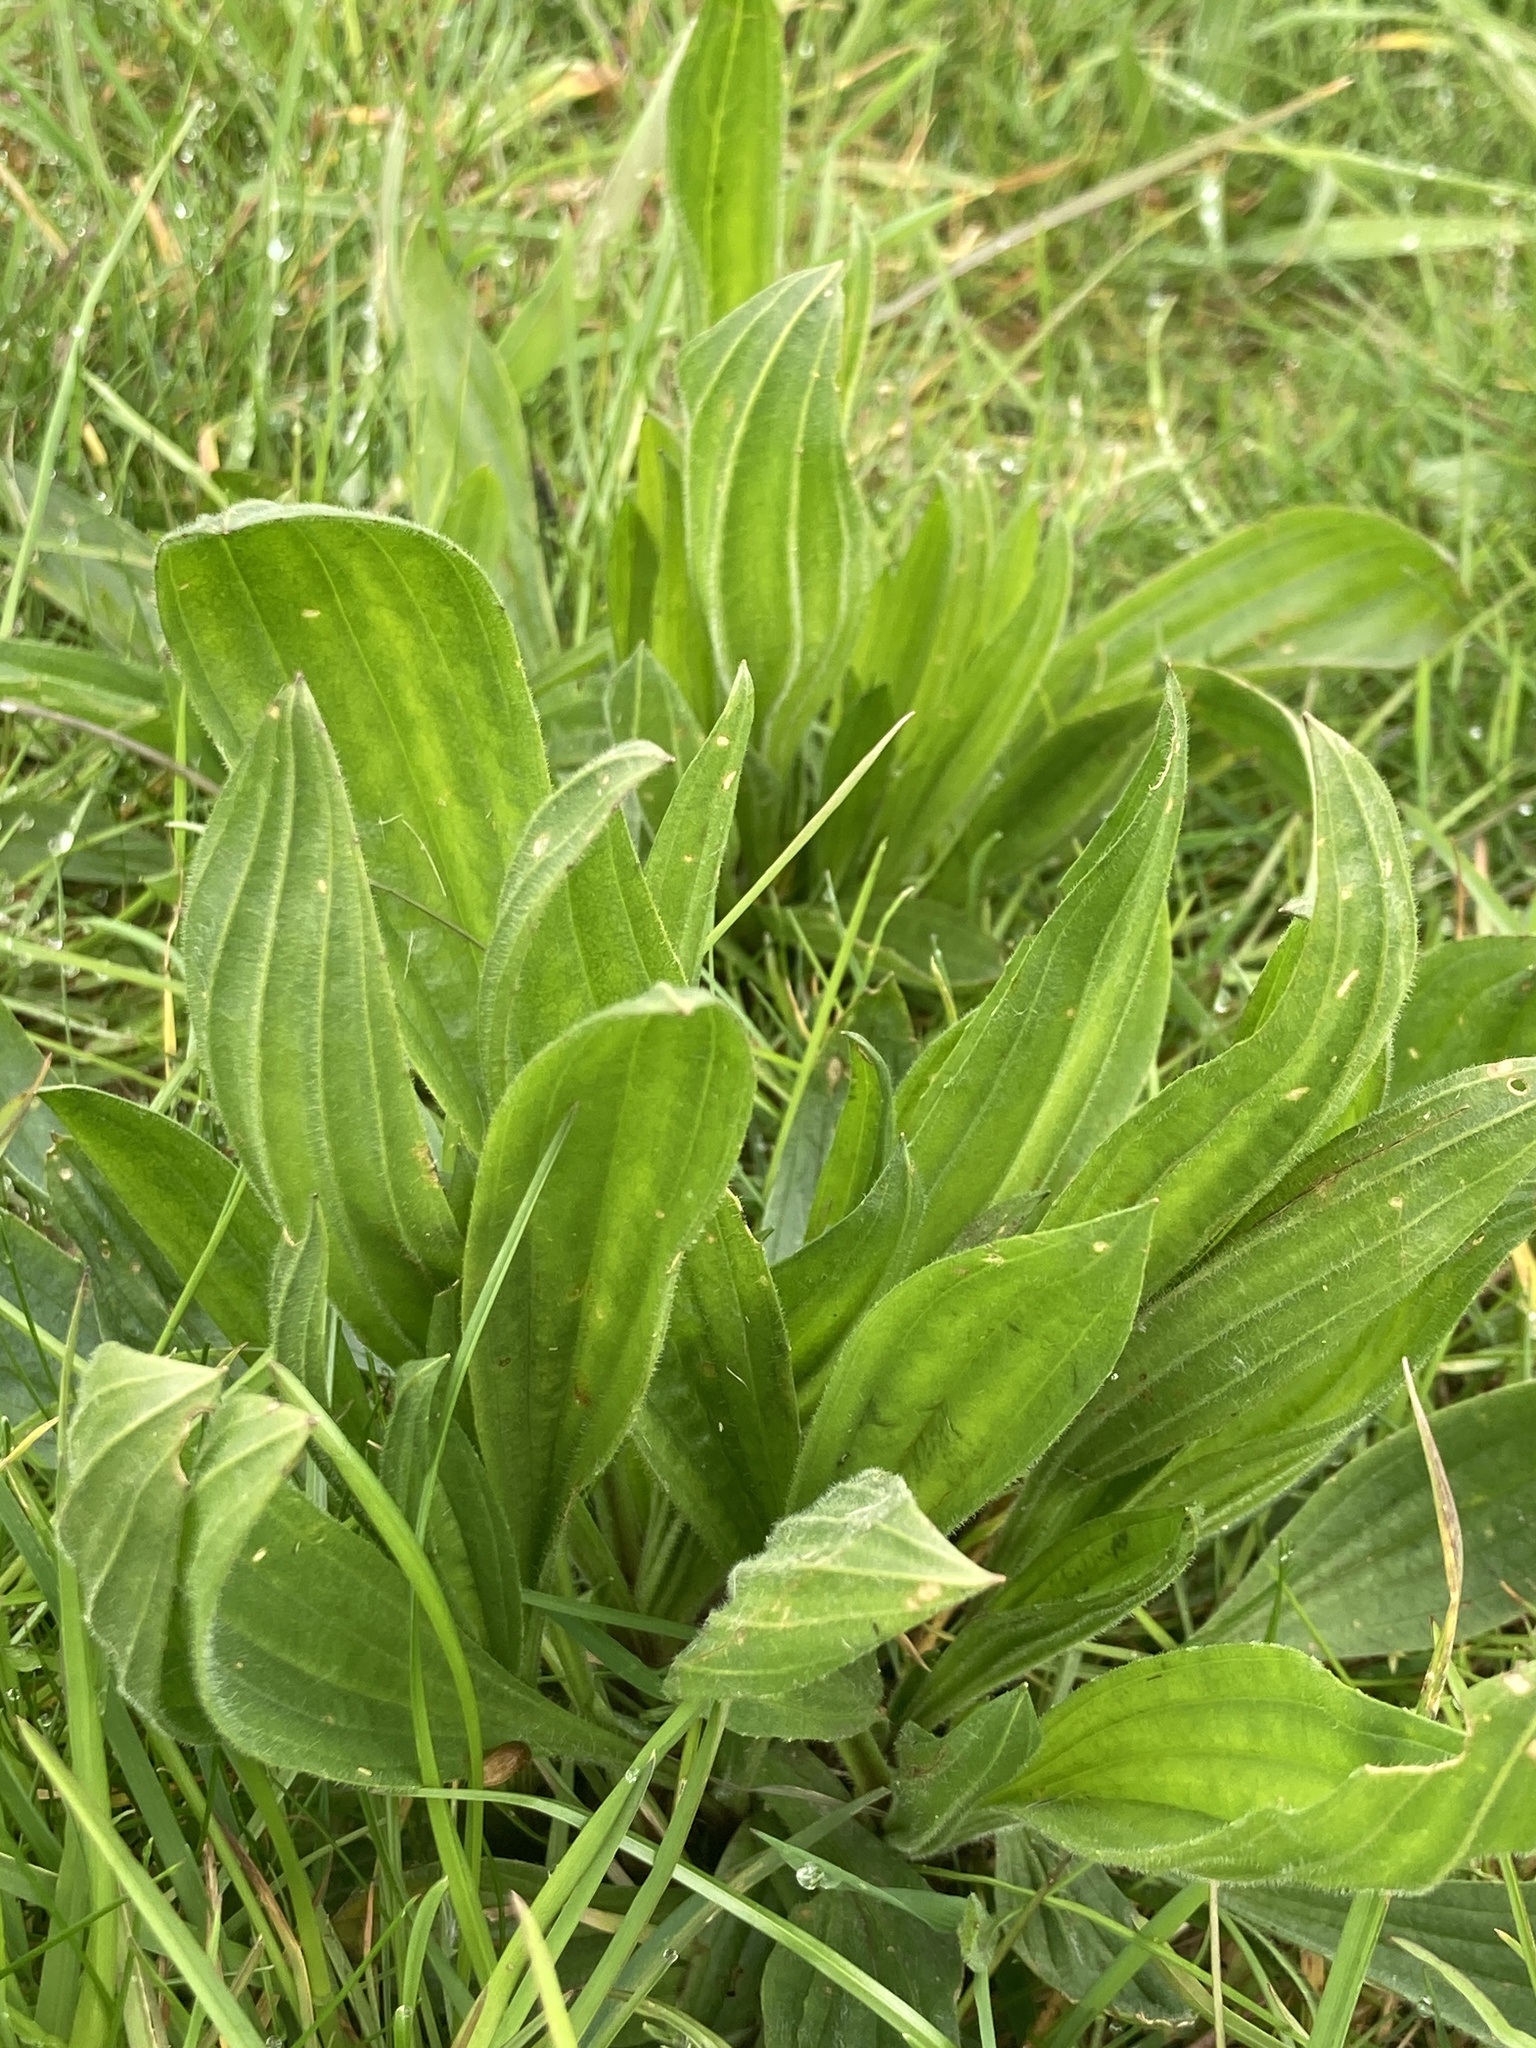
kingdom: Plantae
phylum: Tracheophyta
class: Magnoliopsida
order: Lamiales
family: Plantaginaceae
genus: Plantago
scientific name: Plantago lanceolata
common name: Ribwort plantain
